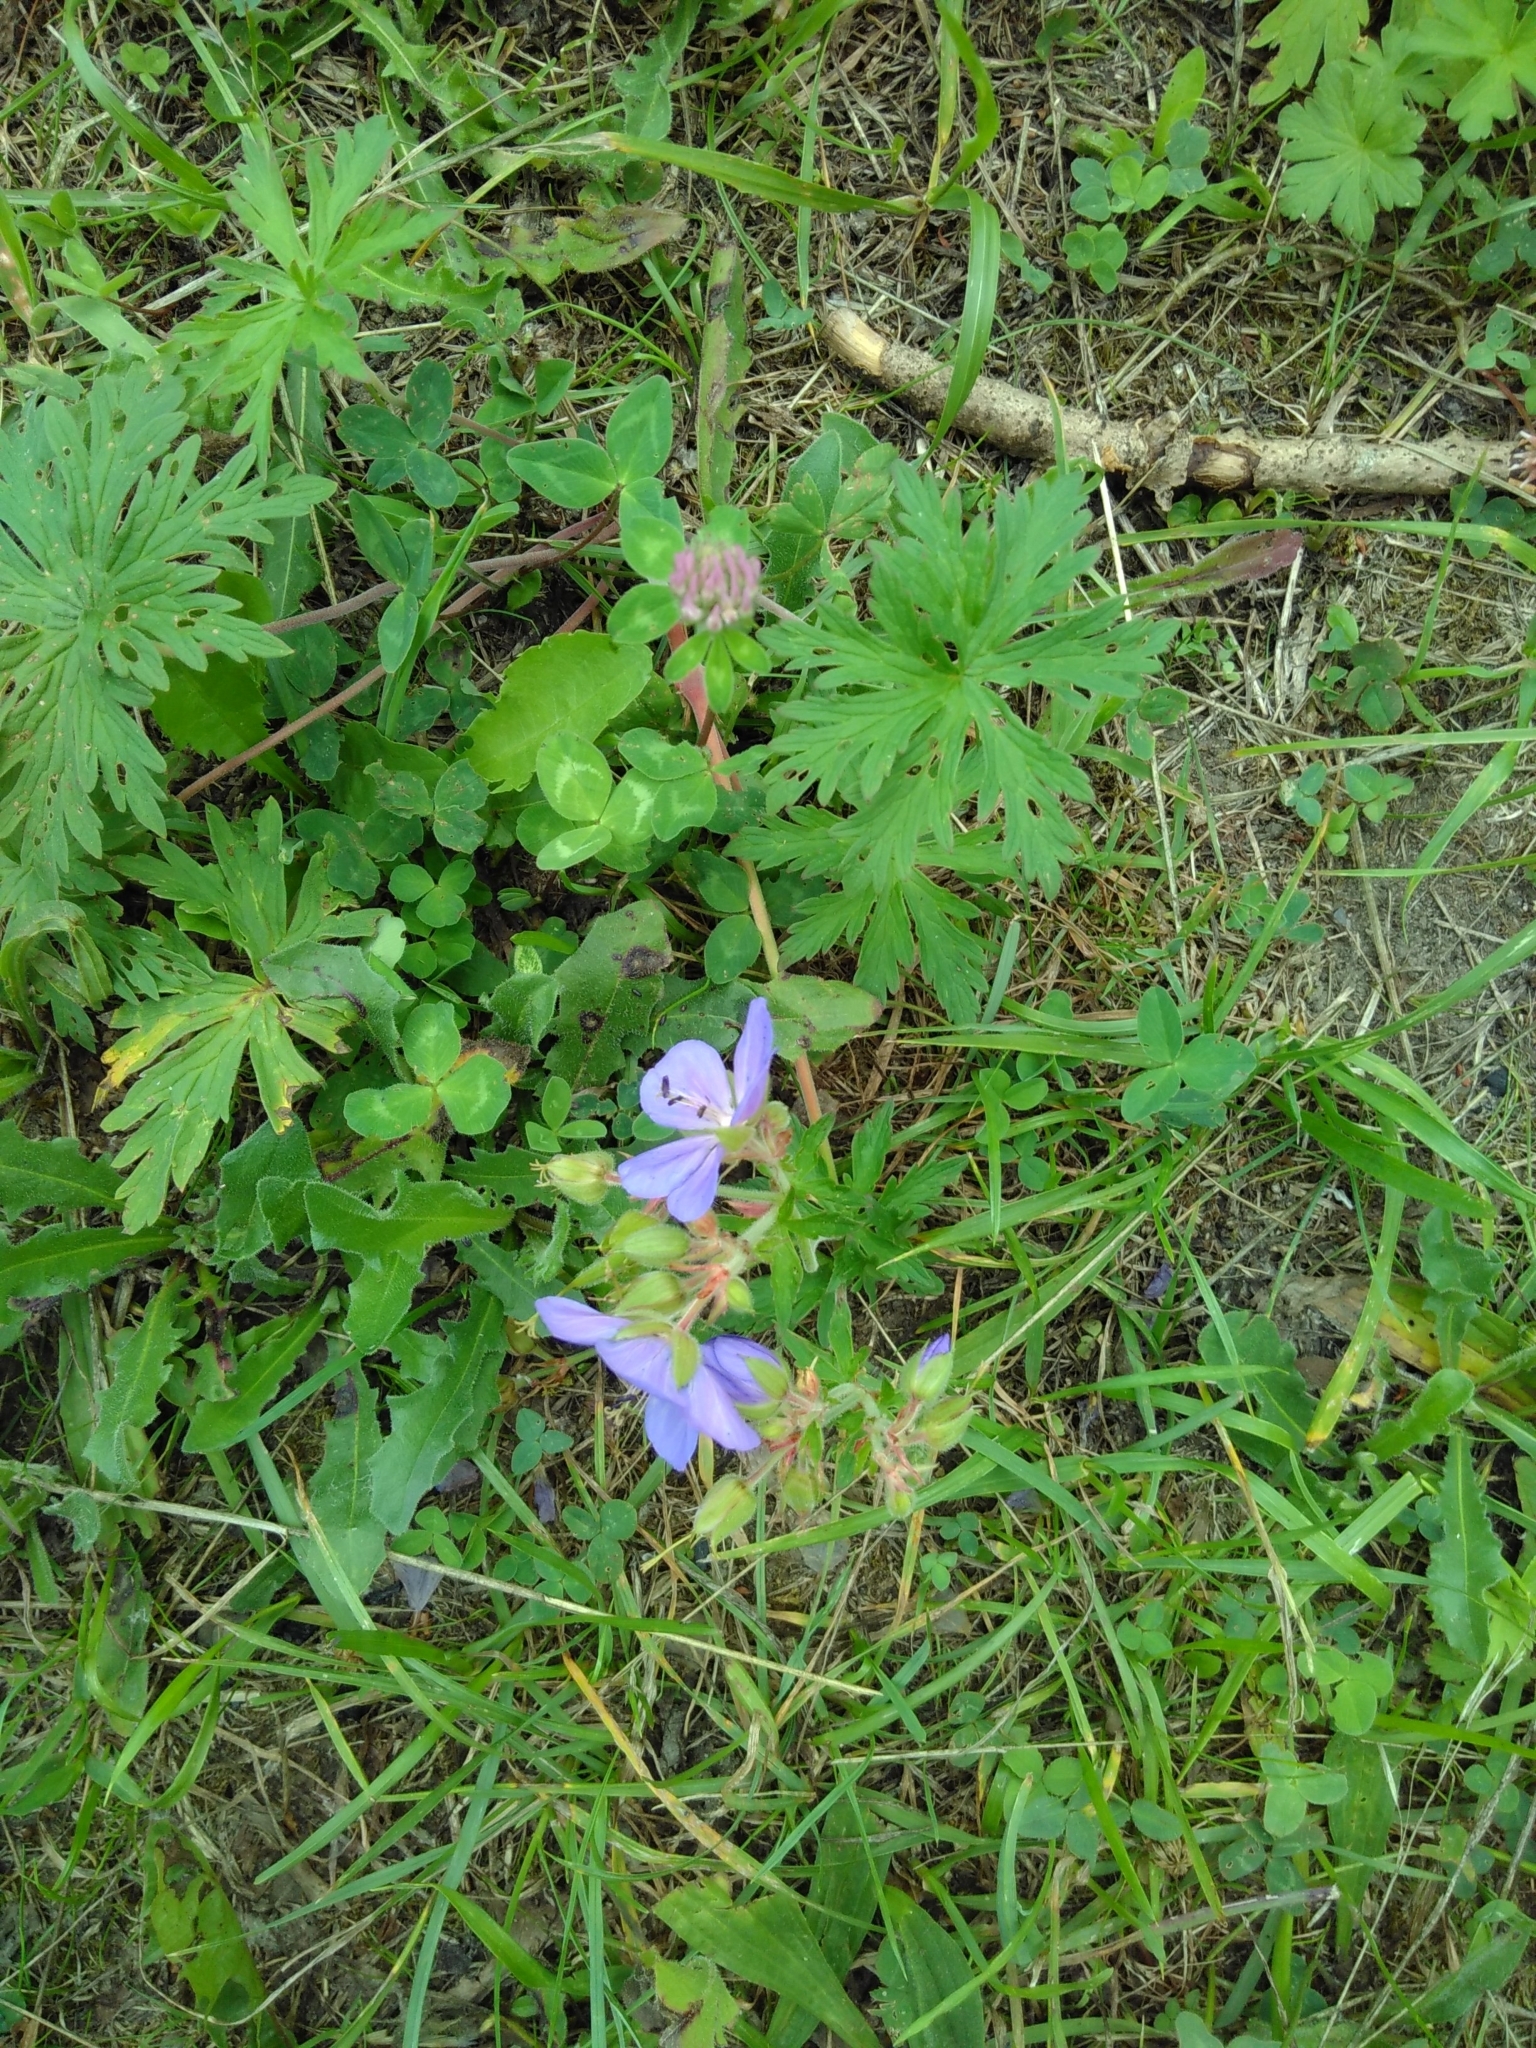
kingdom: Plantae
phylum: Tracheophyta
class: Magnoliopsida
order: Geraniales
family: Geraniaceae
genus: Geranium
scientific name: Geranium pratense
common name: Meadow crane's-bill
